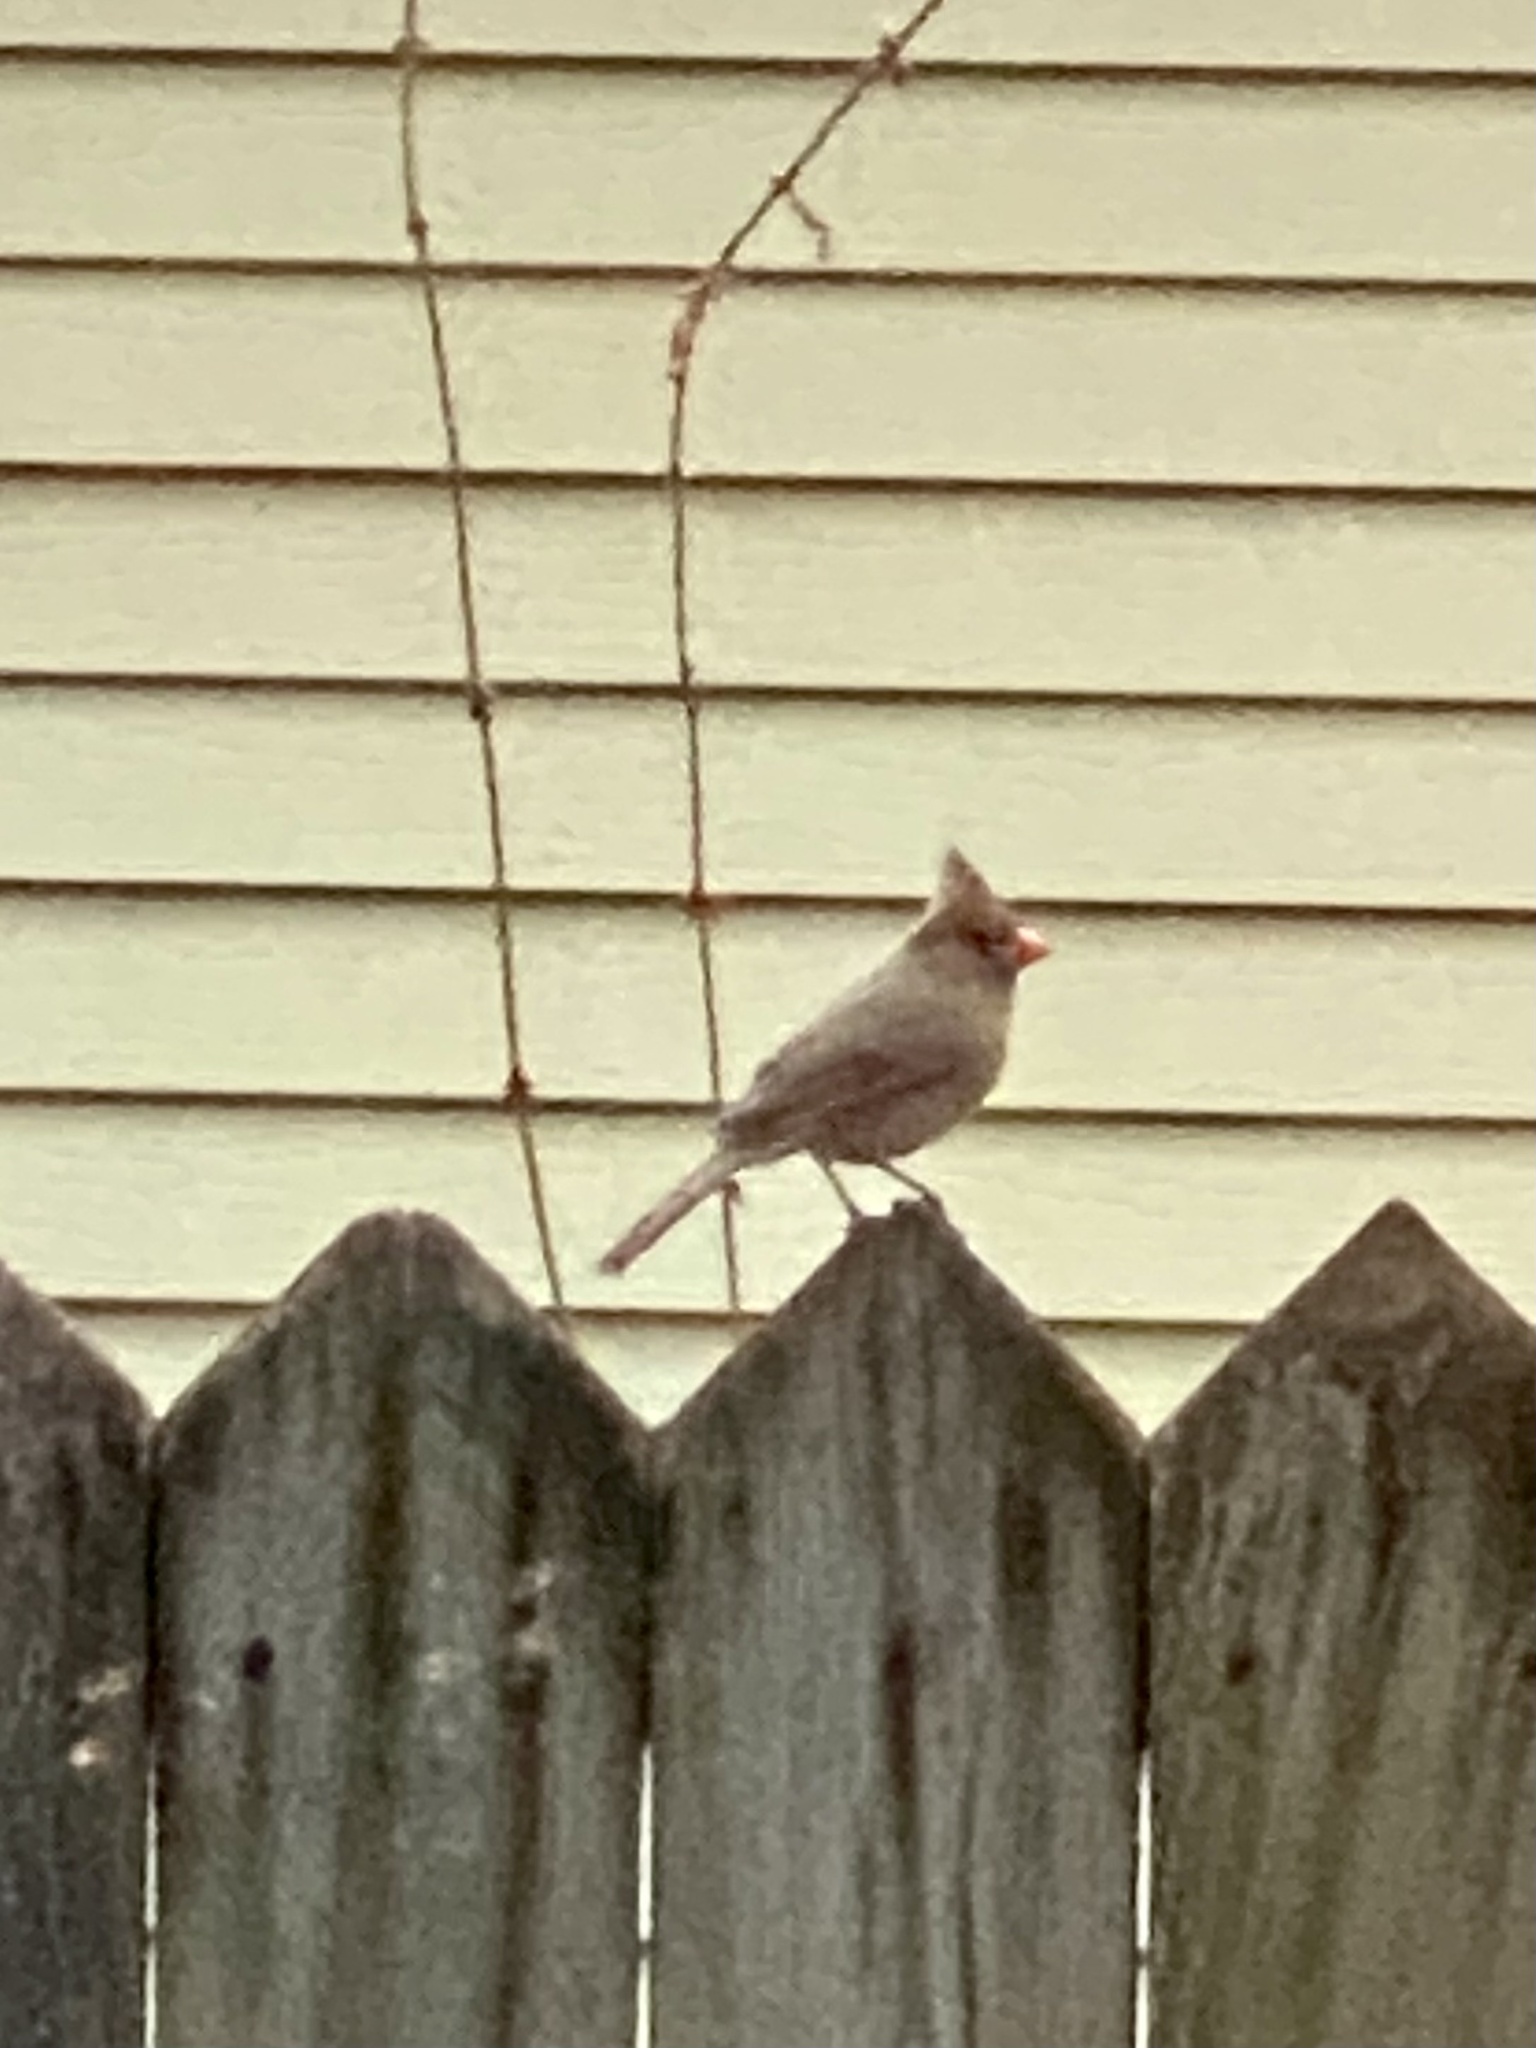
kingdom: Animalia
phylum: Chordata
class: Aves
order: Passeriformes
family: Cardinalidae
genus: Cardinalis
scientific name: Cardinalis cardinalis
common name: Northern cardinal
